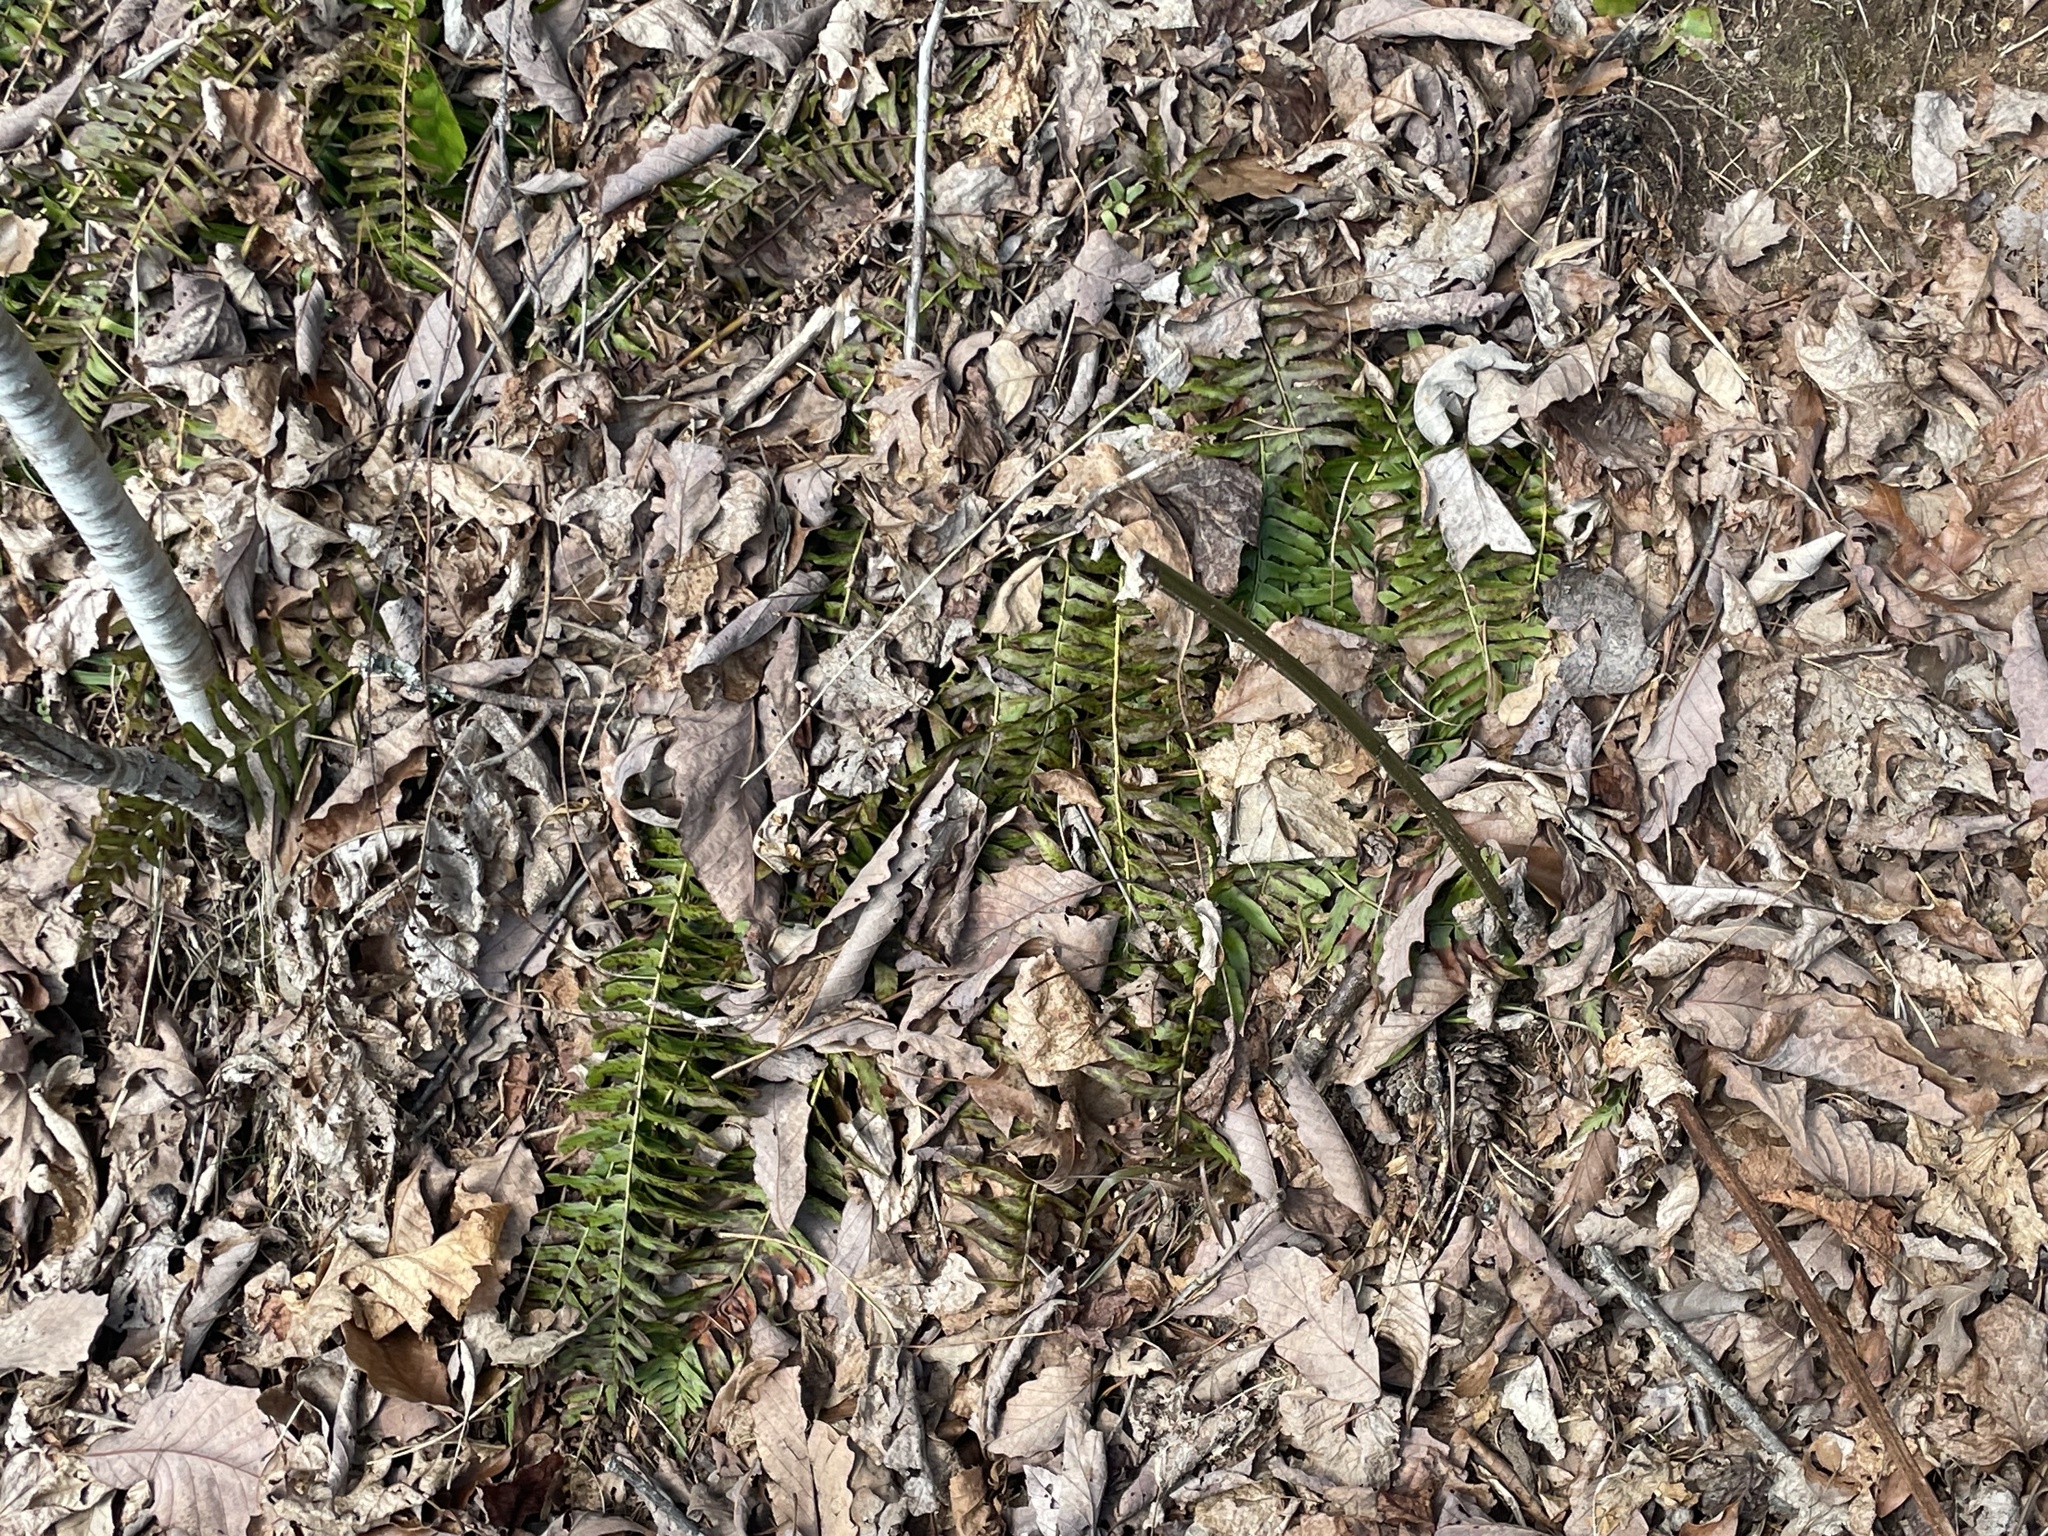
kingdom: Plantae
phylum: Tracheophyta
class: Polypodiopsida
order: Polypodiales
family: Dryopteridaceae
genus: Polystichum
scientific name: Polystichum acrostichoides
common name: Christmas fern
